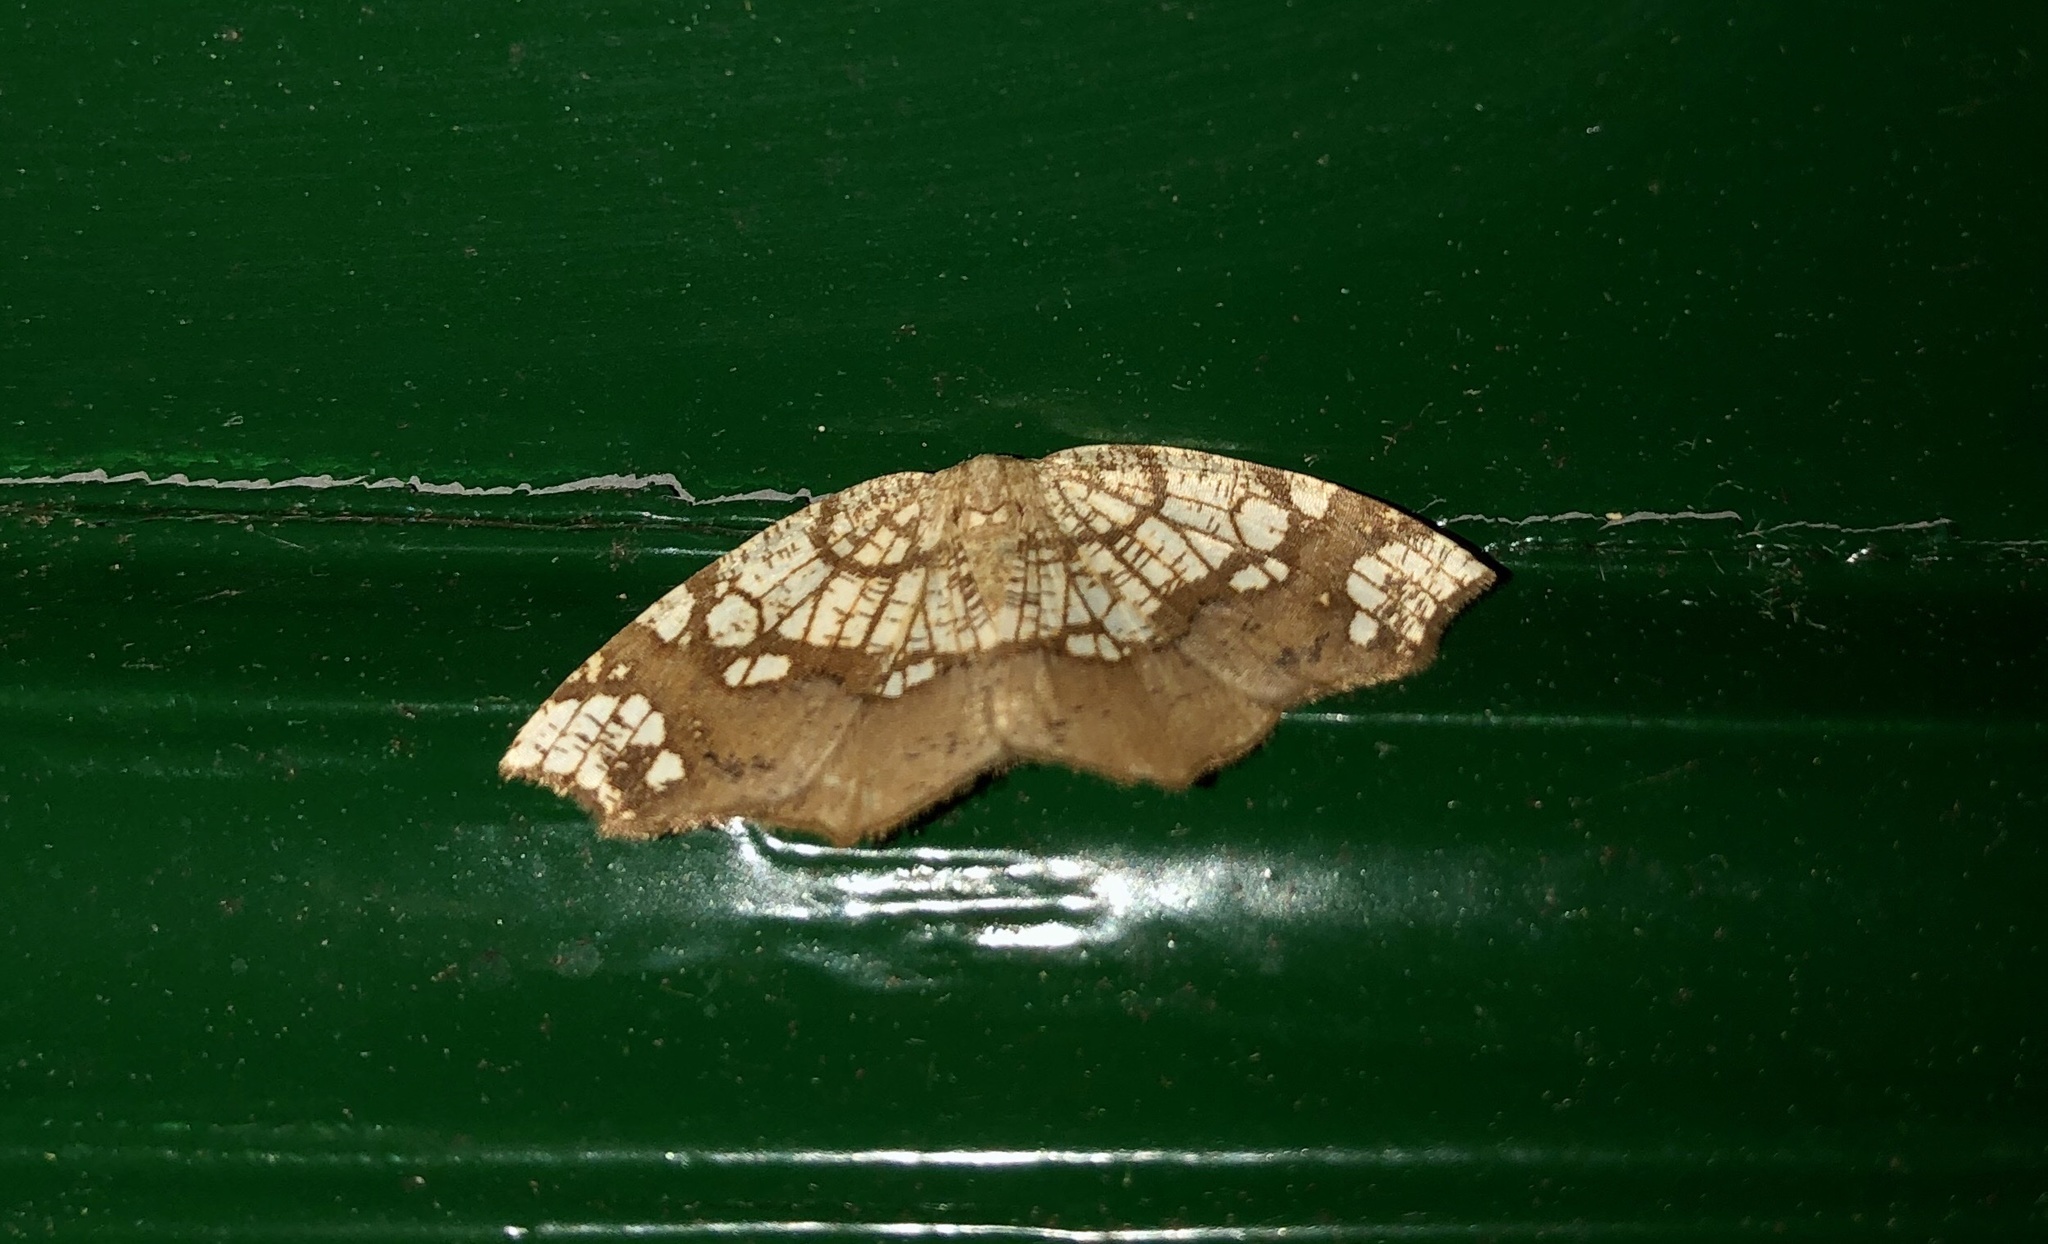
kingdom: Animalia
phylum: Arthropoda
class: Insecta
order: Lepidoptera
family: Geometridae
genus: Nematocampa
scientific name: Nematocampa resistaria
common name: Horned spanworm moth
